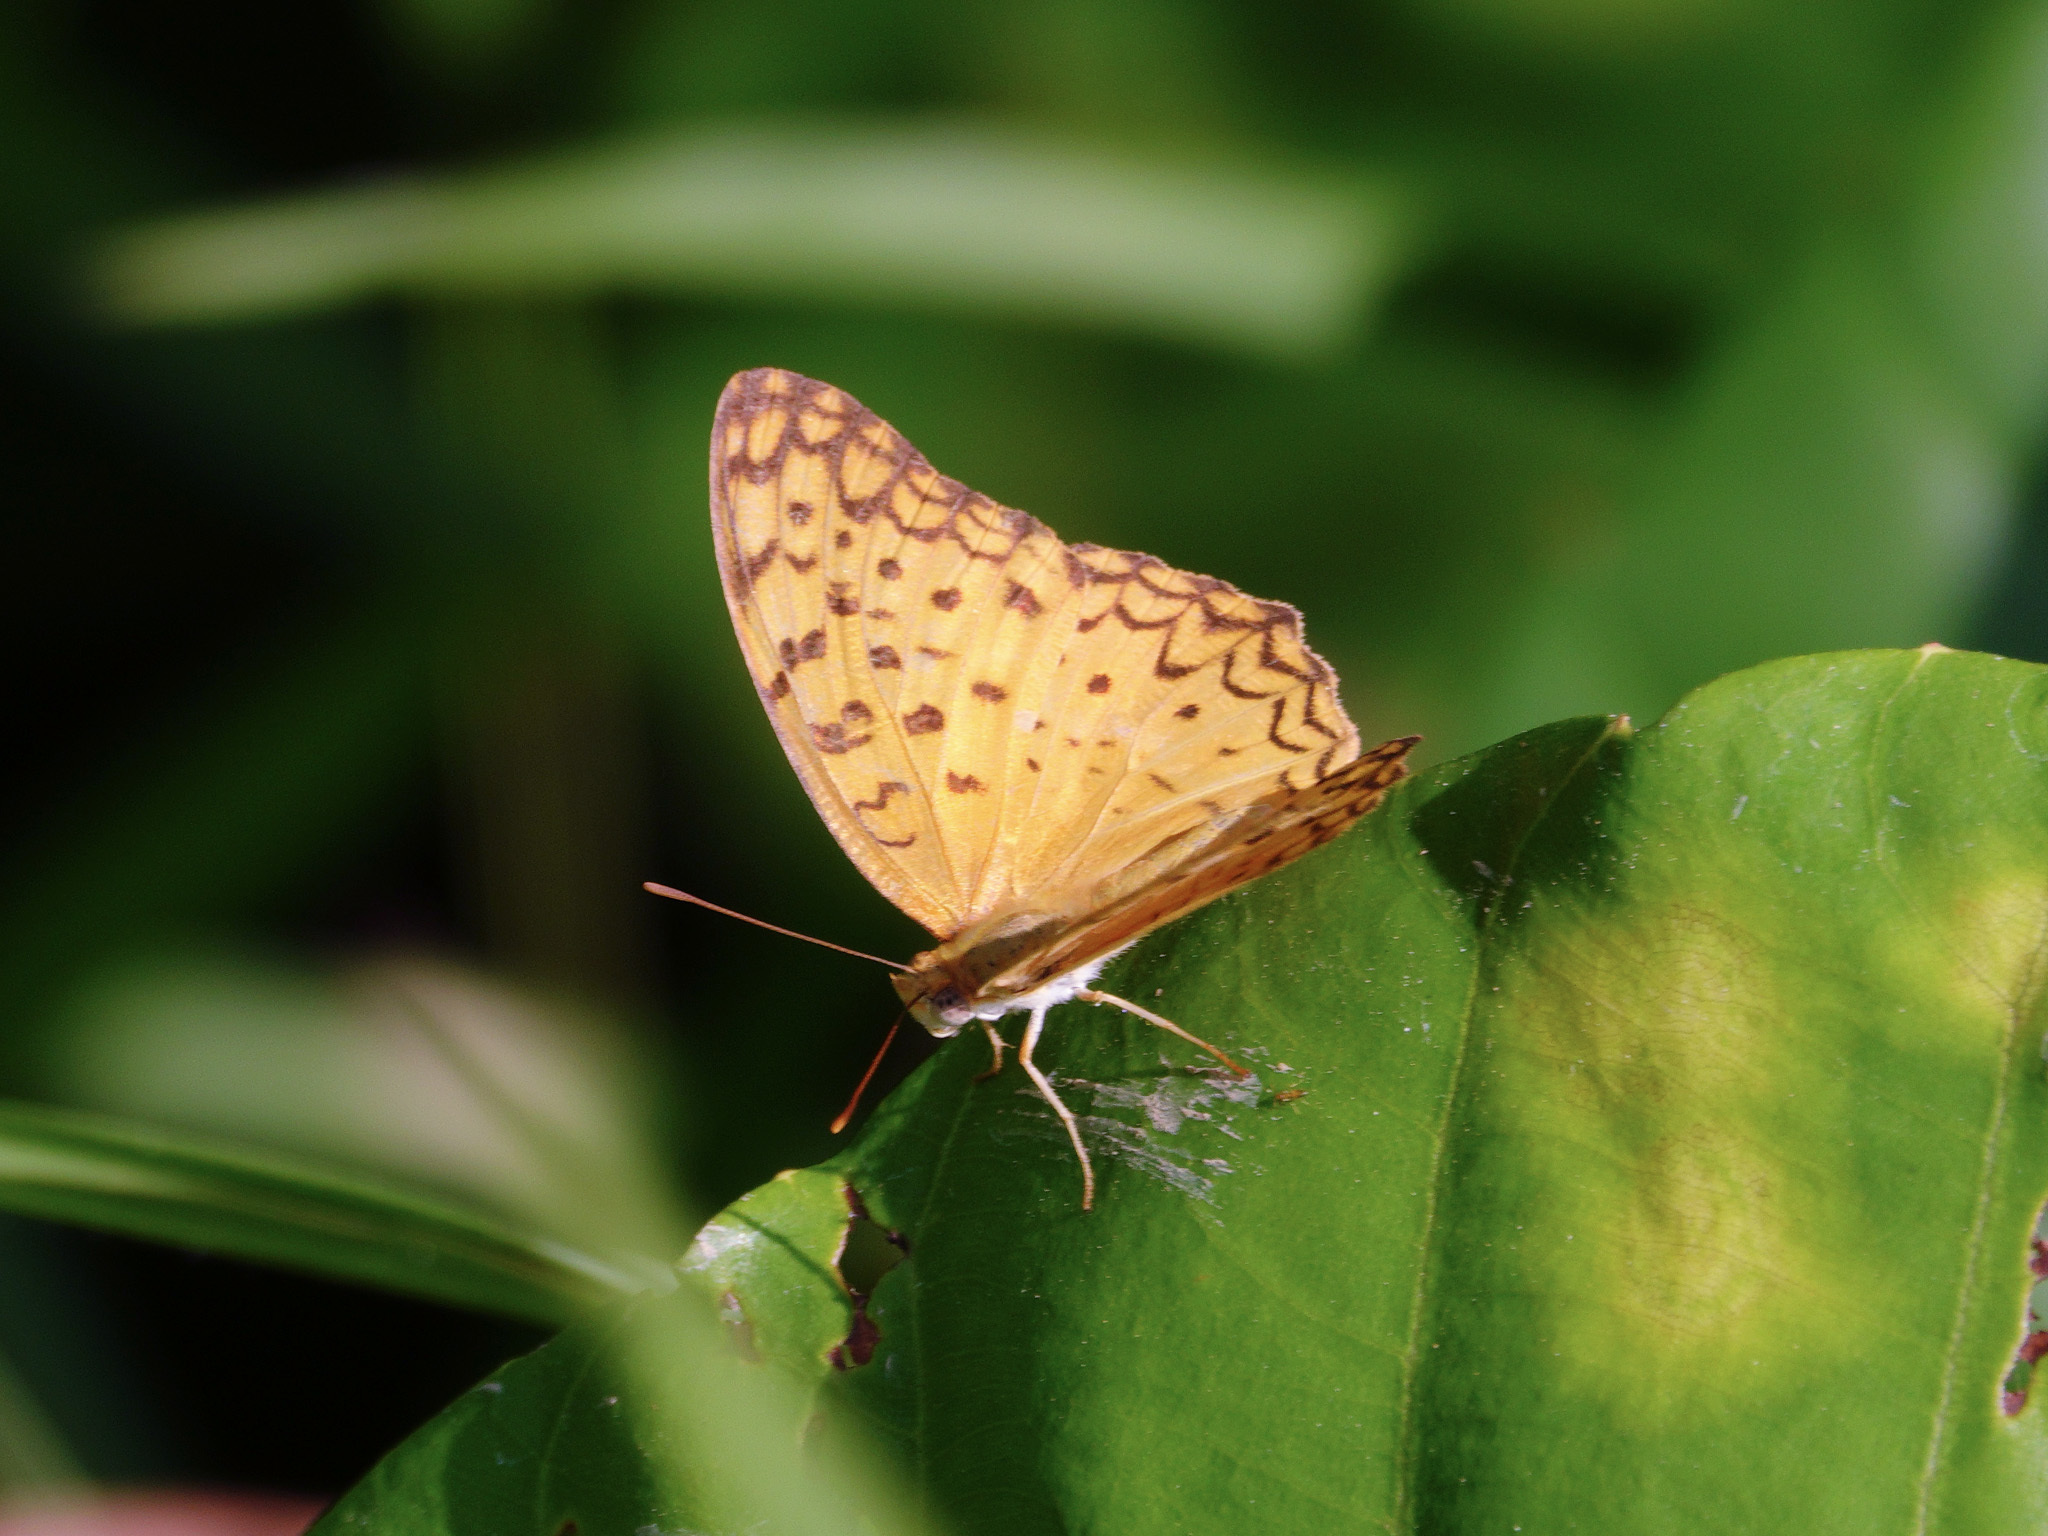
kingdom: Animalia
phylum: Arthropoda
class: Insecta
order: Lepidoptera
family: Nymphalidae
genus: Phalanta
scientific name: Phalanta phalantha
